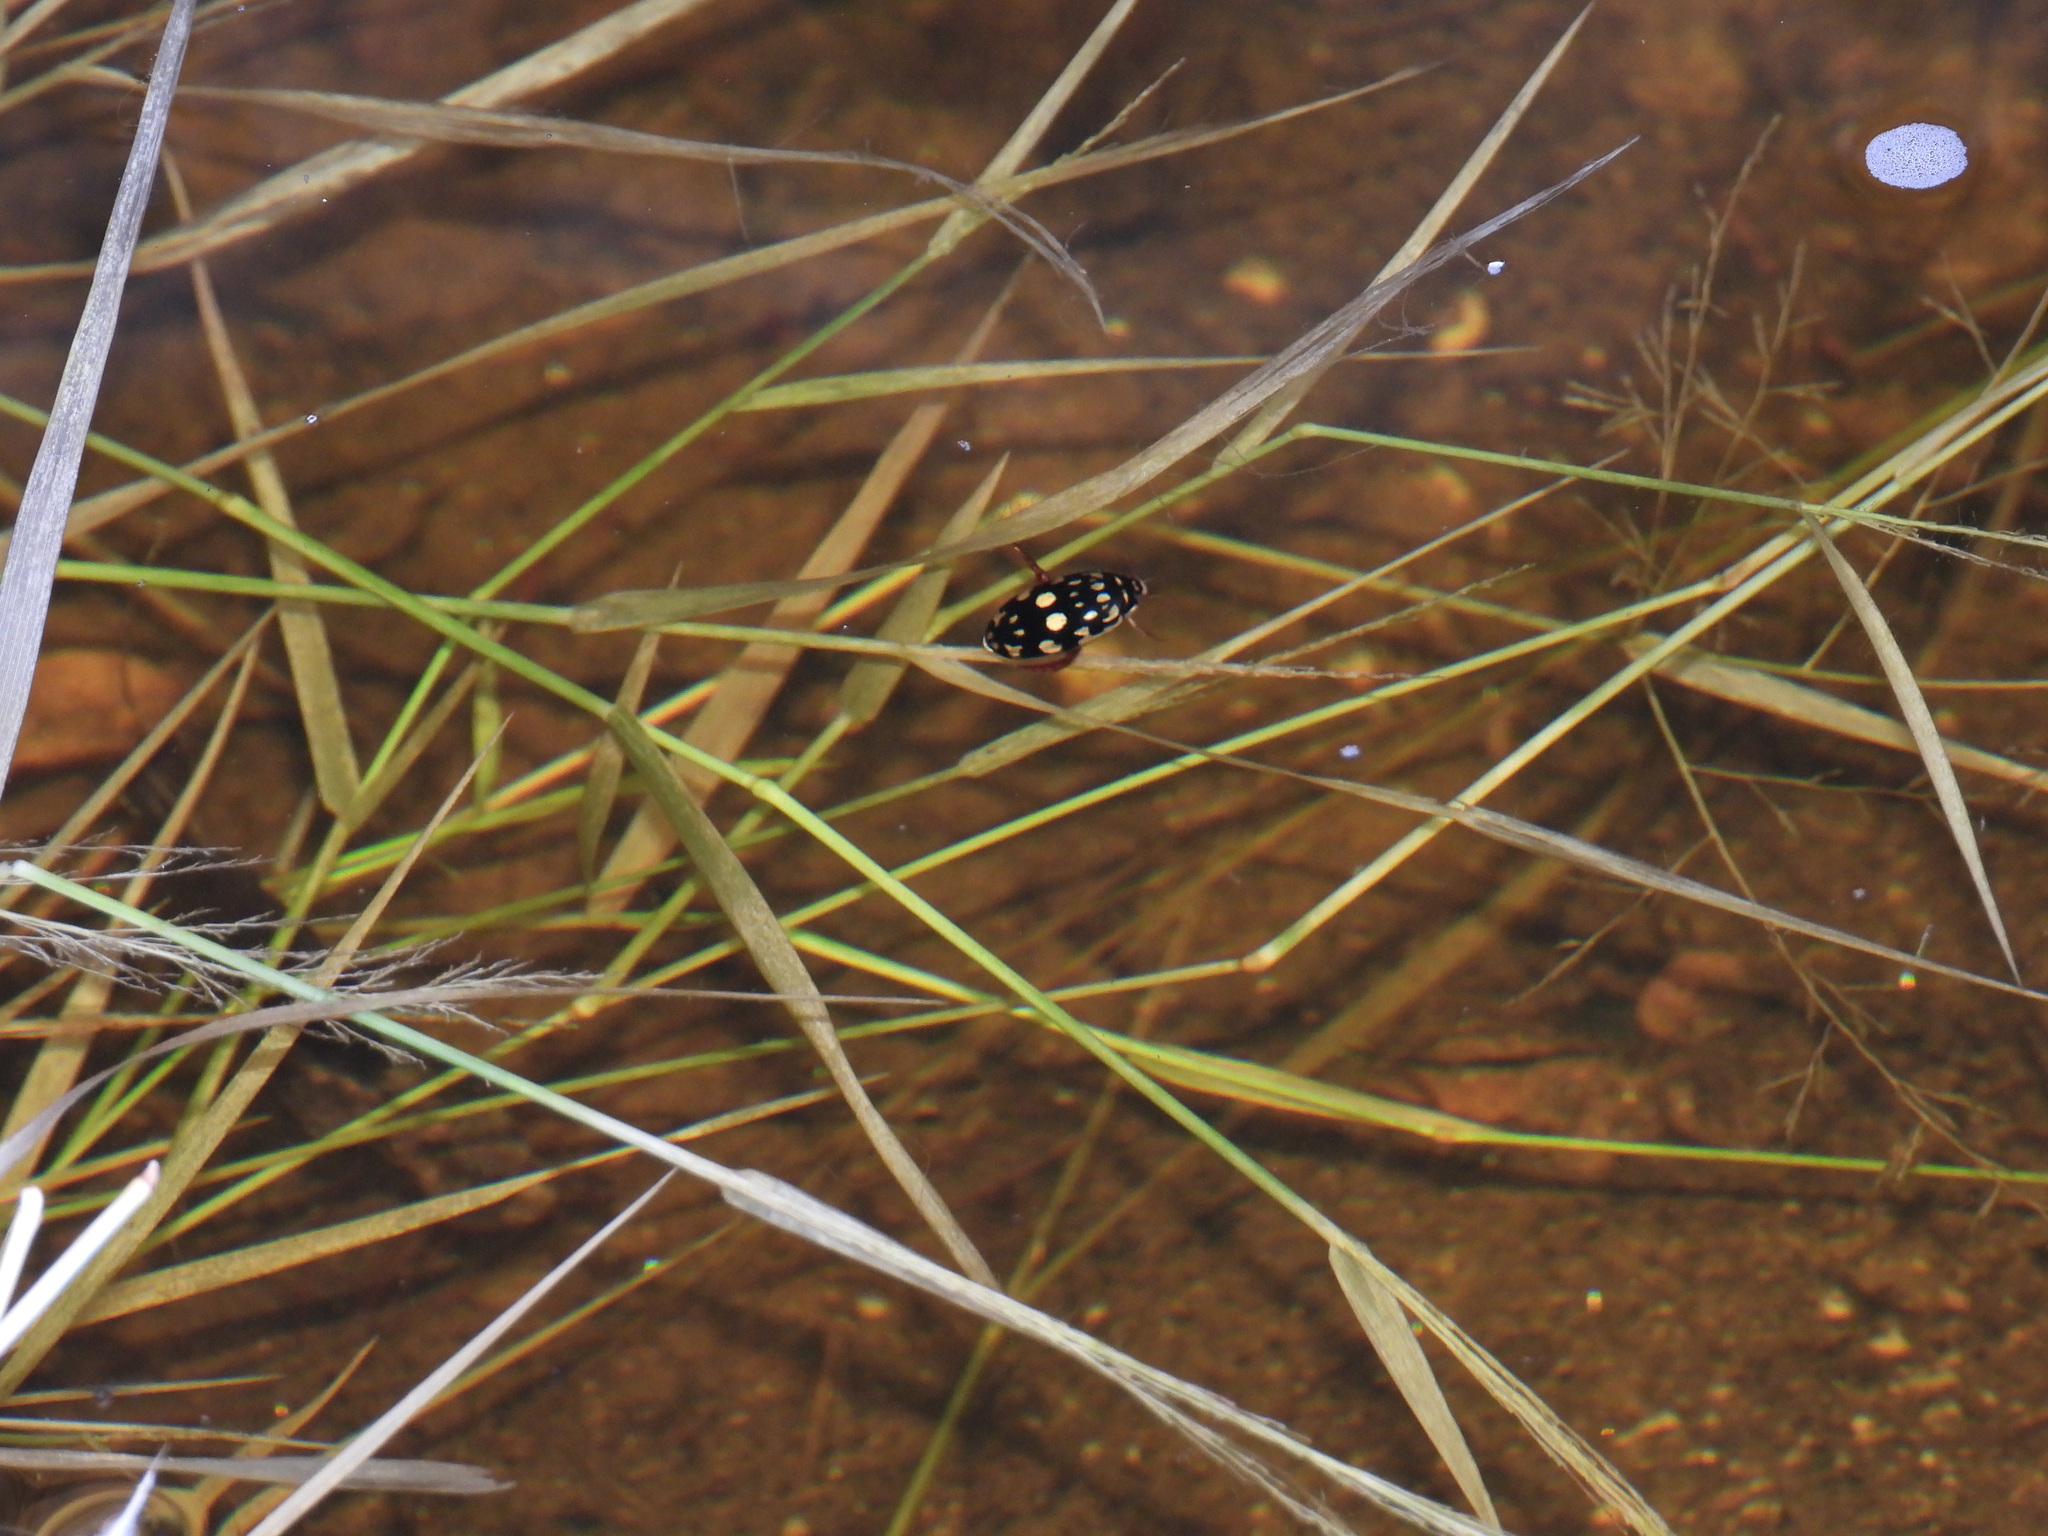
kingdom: Animalia
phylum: Arthropoda
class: Insecta
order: Coleoptera
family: Dytiscidae
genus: Thermonectus
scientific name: Thermonectus marmoratus
